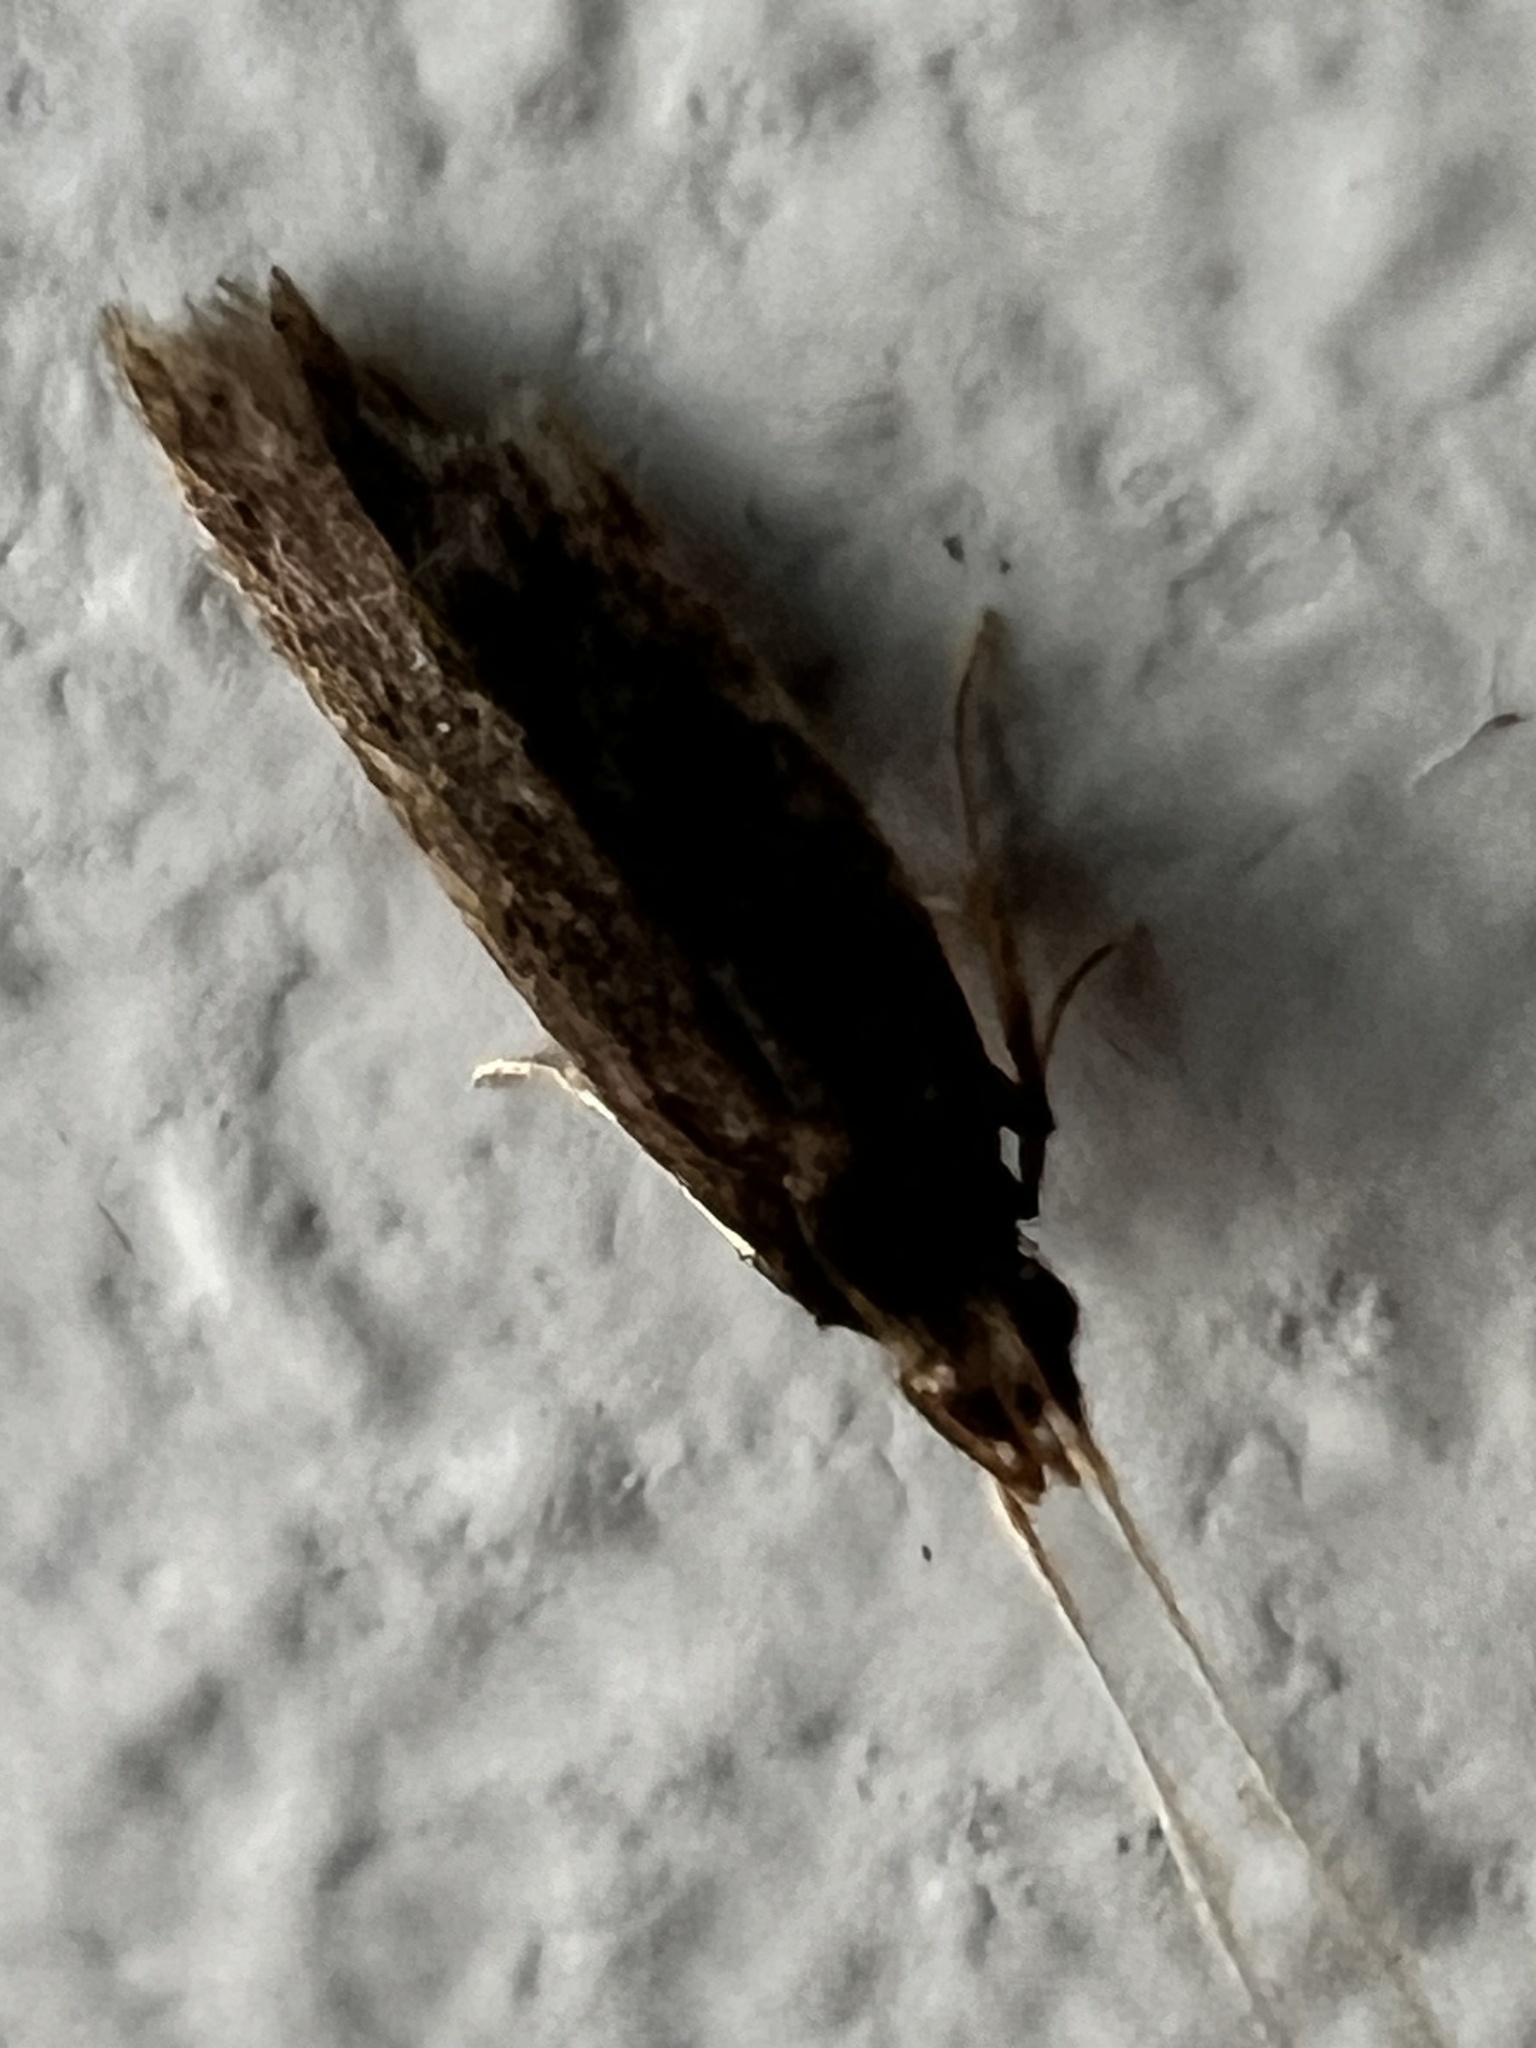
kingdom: Animalia
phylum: Arthropoda
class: Insecta
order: Lepidoptera
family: Lecithoceridae
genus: Lecithocera
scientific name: Lecithocera micromela
